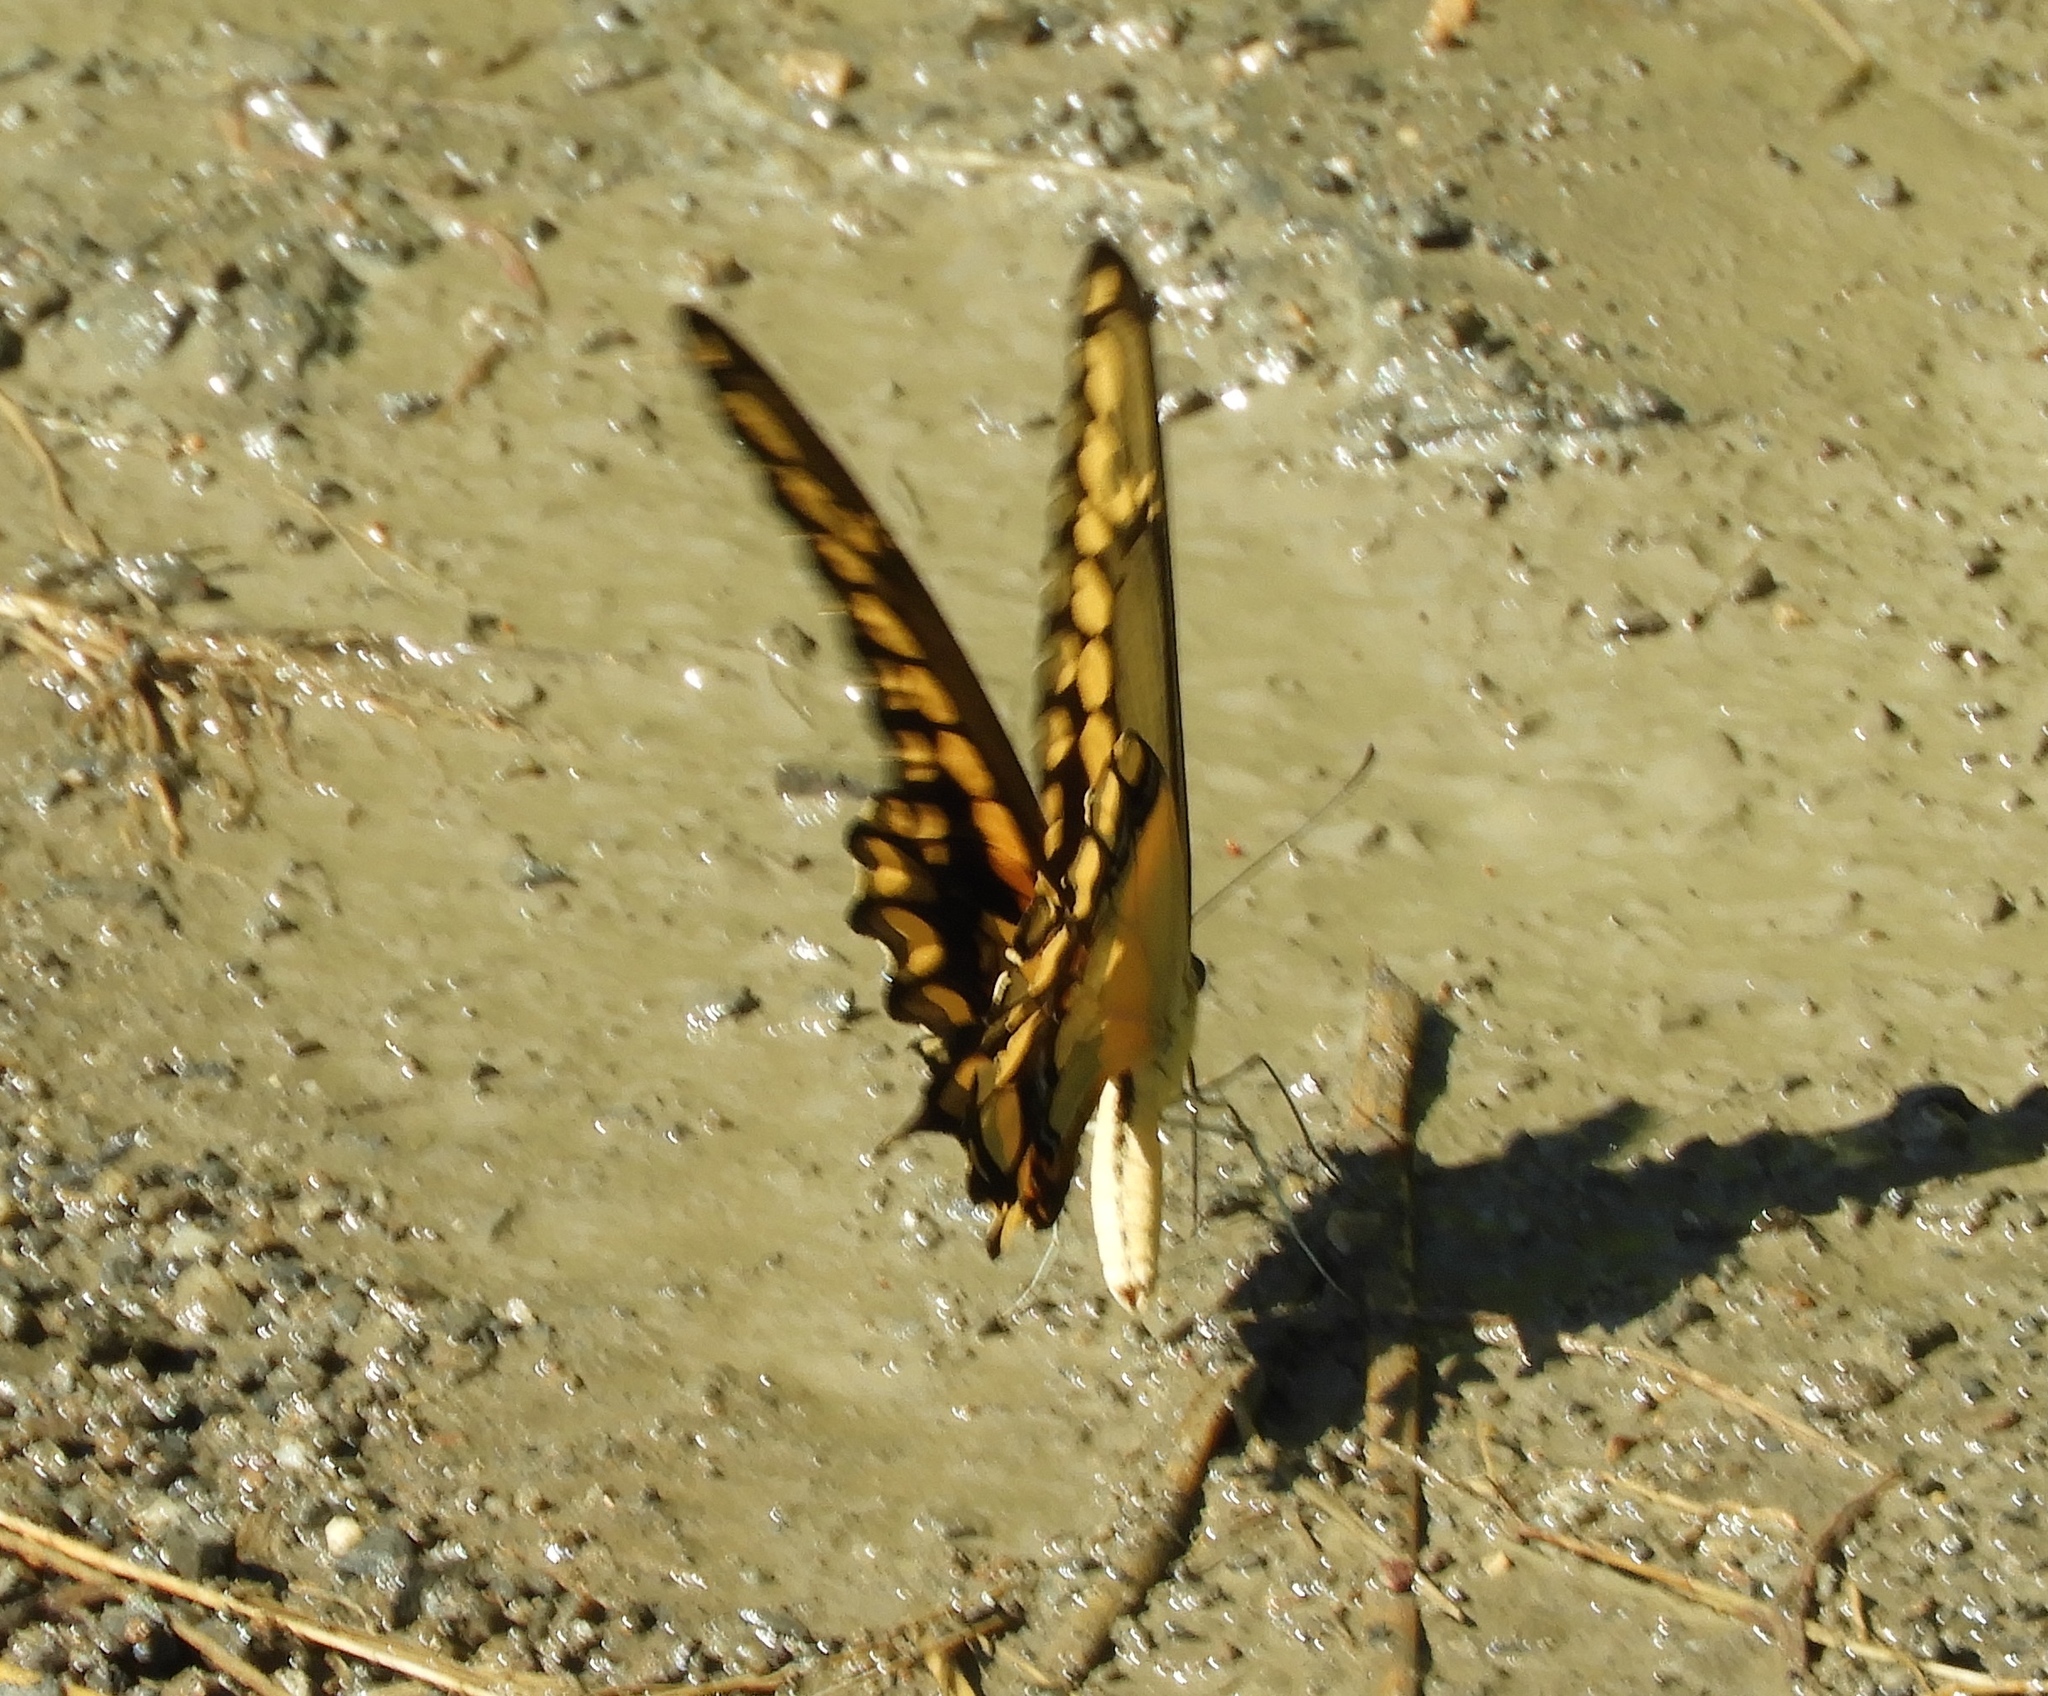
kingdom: Animalia
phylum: Arthropoda
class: Insecta
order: Lepidoptera
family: Papilionidae
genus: Papilio
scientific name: Papilio rumiko
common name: Western giant swallowtail
